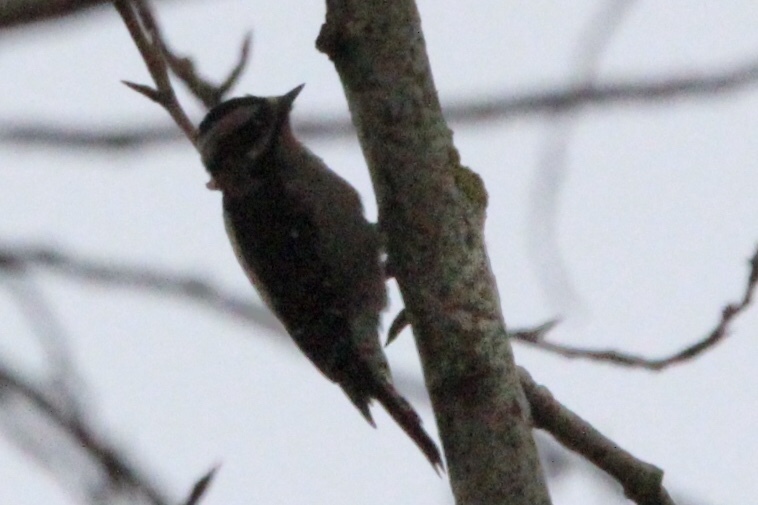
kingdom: Animalia
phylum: Chordata
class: Aves
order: Piciformes
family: Picidae
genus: Dryobates
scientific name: Dryobates pubescens
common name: Downy woodpecker
